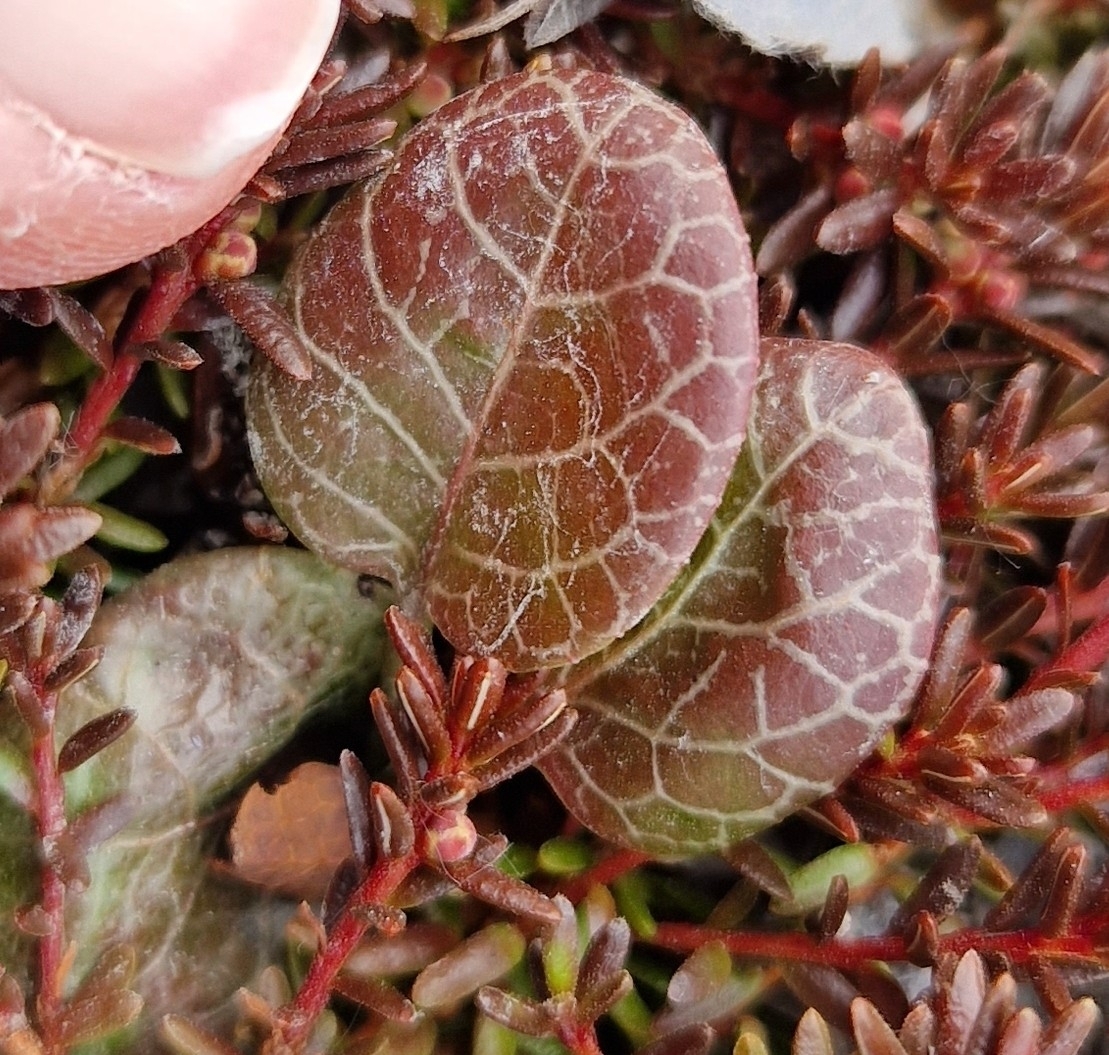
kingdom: Plantae
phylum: Tracheophyta
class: Magnoliopsida
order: Ericales
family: Ericaceae
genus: Pyrola
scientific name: Pyrola grandiflora
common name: Arctic pyrola
